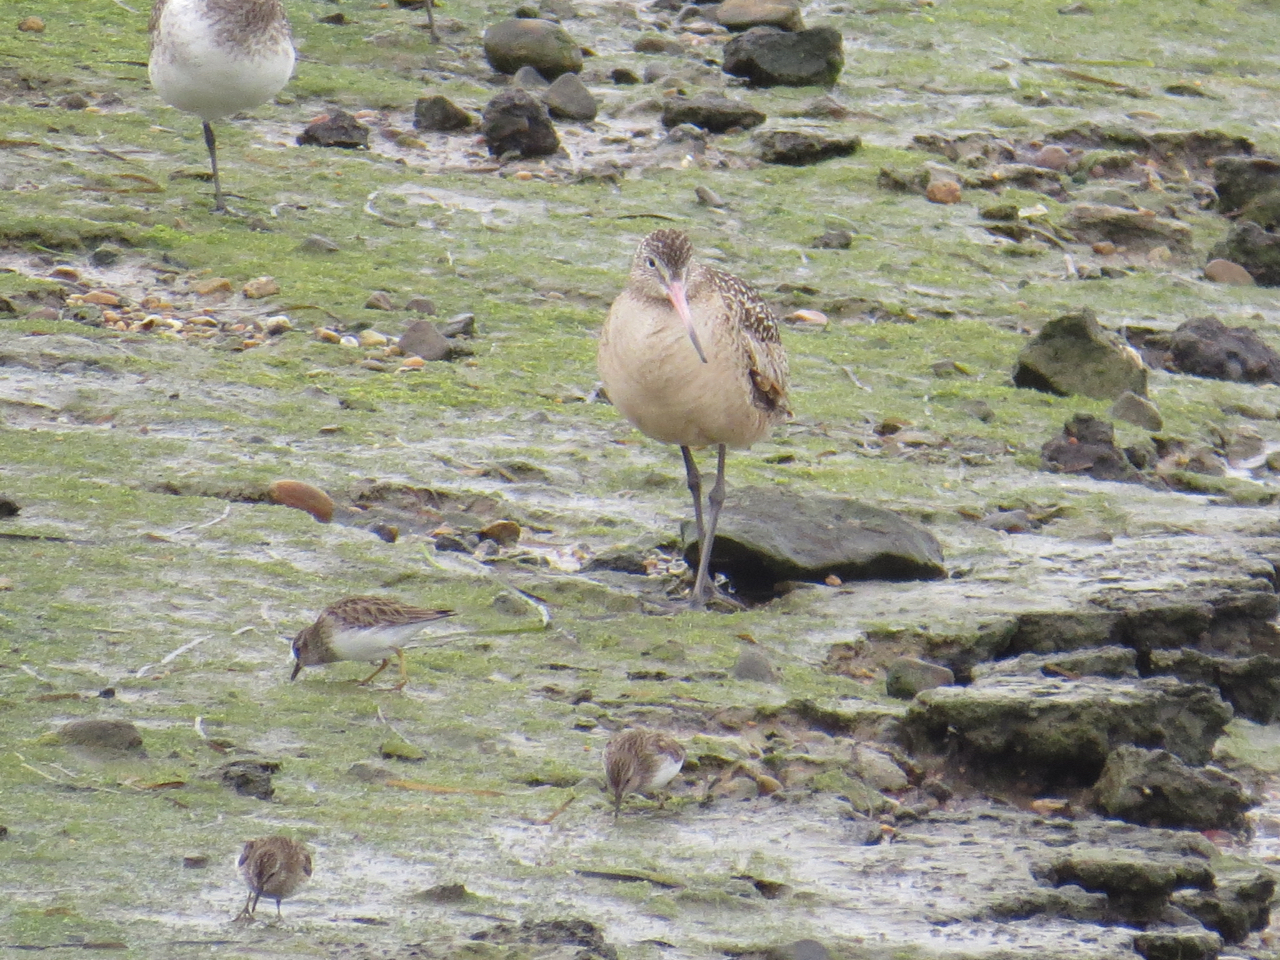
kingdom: Animalia
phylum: Chordata
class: Aves
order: Charadriiformes
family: Scolopacidae
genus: Limosa
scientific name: Limosa fedoa
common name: Marbled godwit
